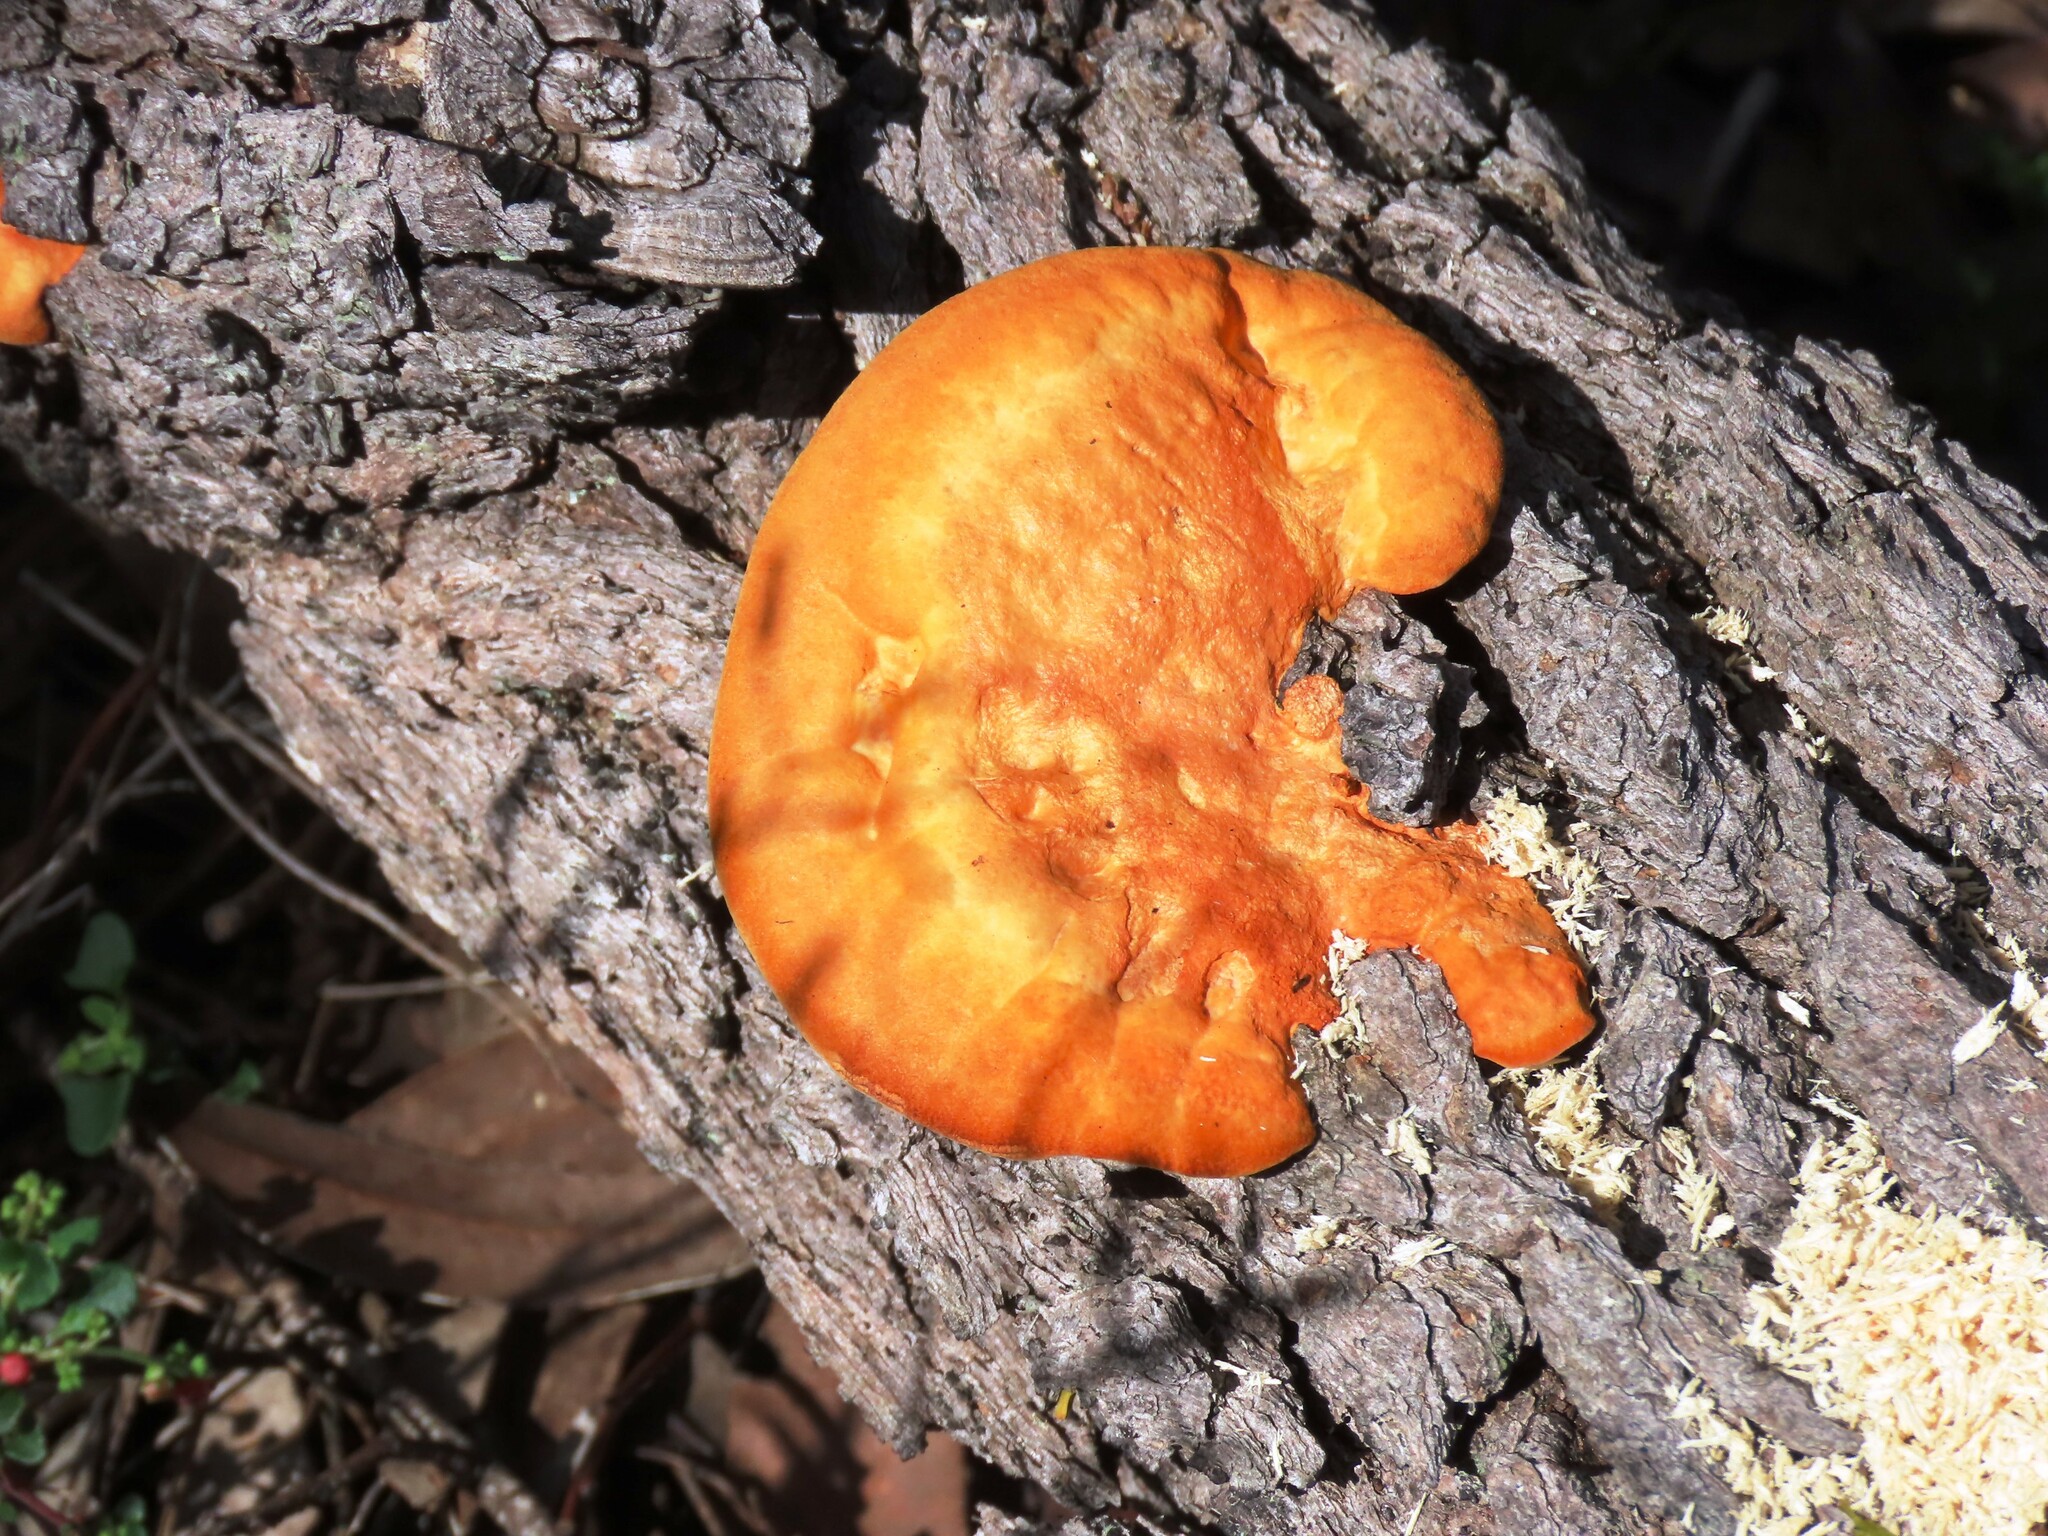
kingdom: Fungi
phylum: Basidiomycota
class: Agaricomycetes
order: Polyporales
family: Polyporaceae
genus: Trametes
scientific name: Trametes coccinea
